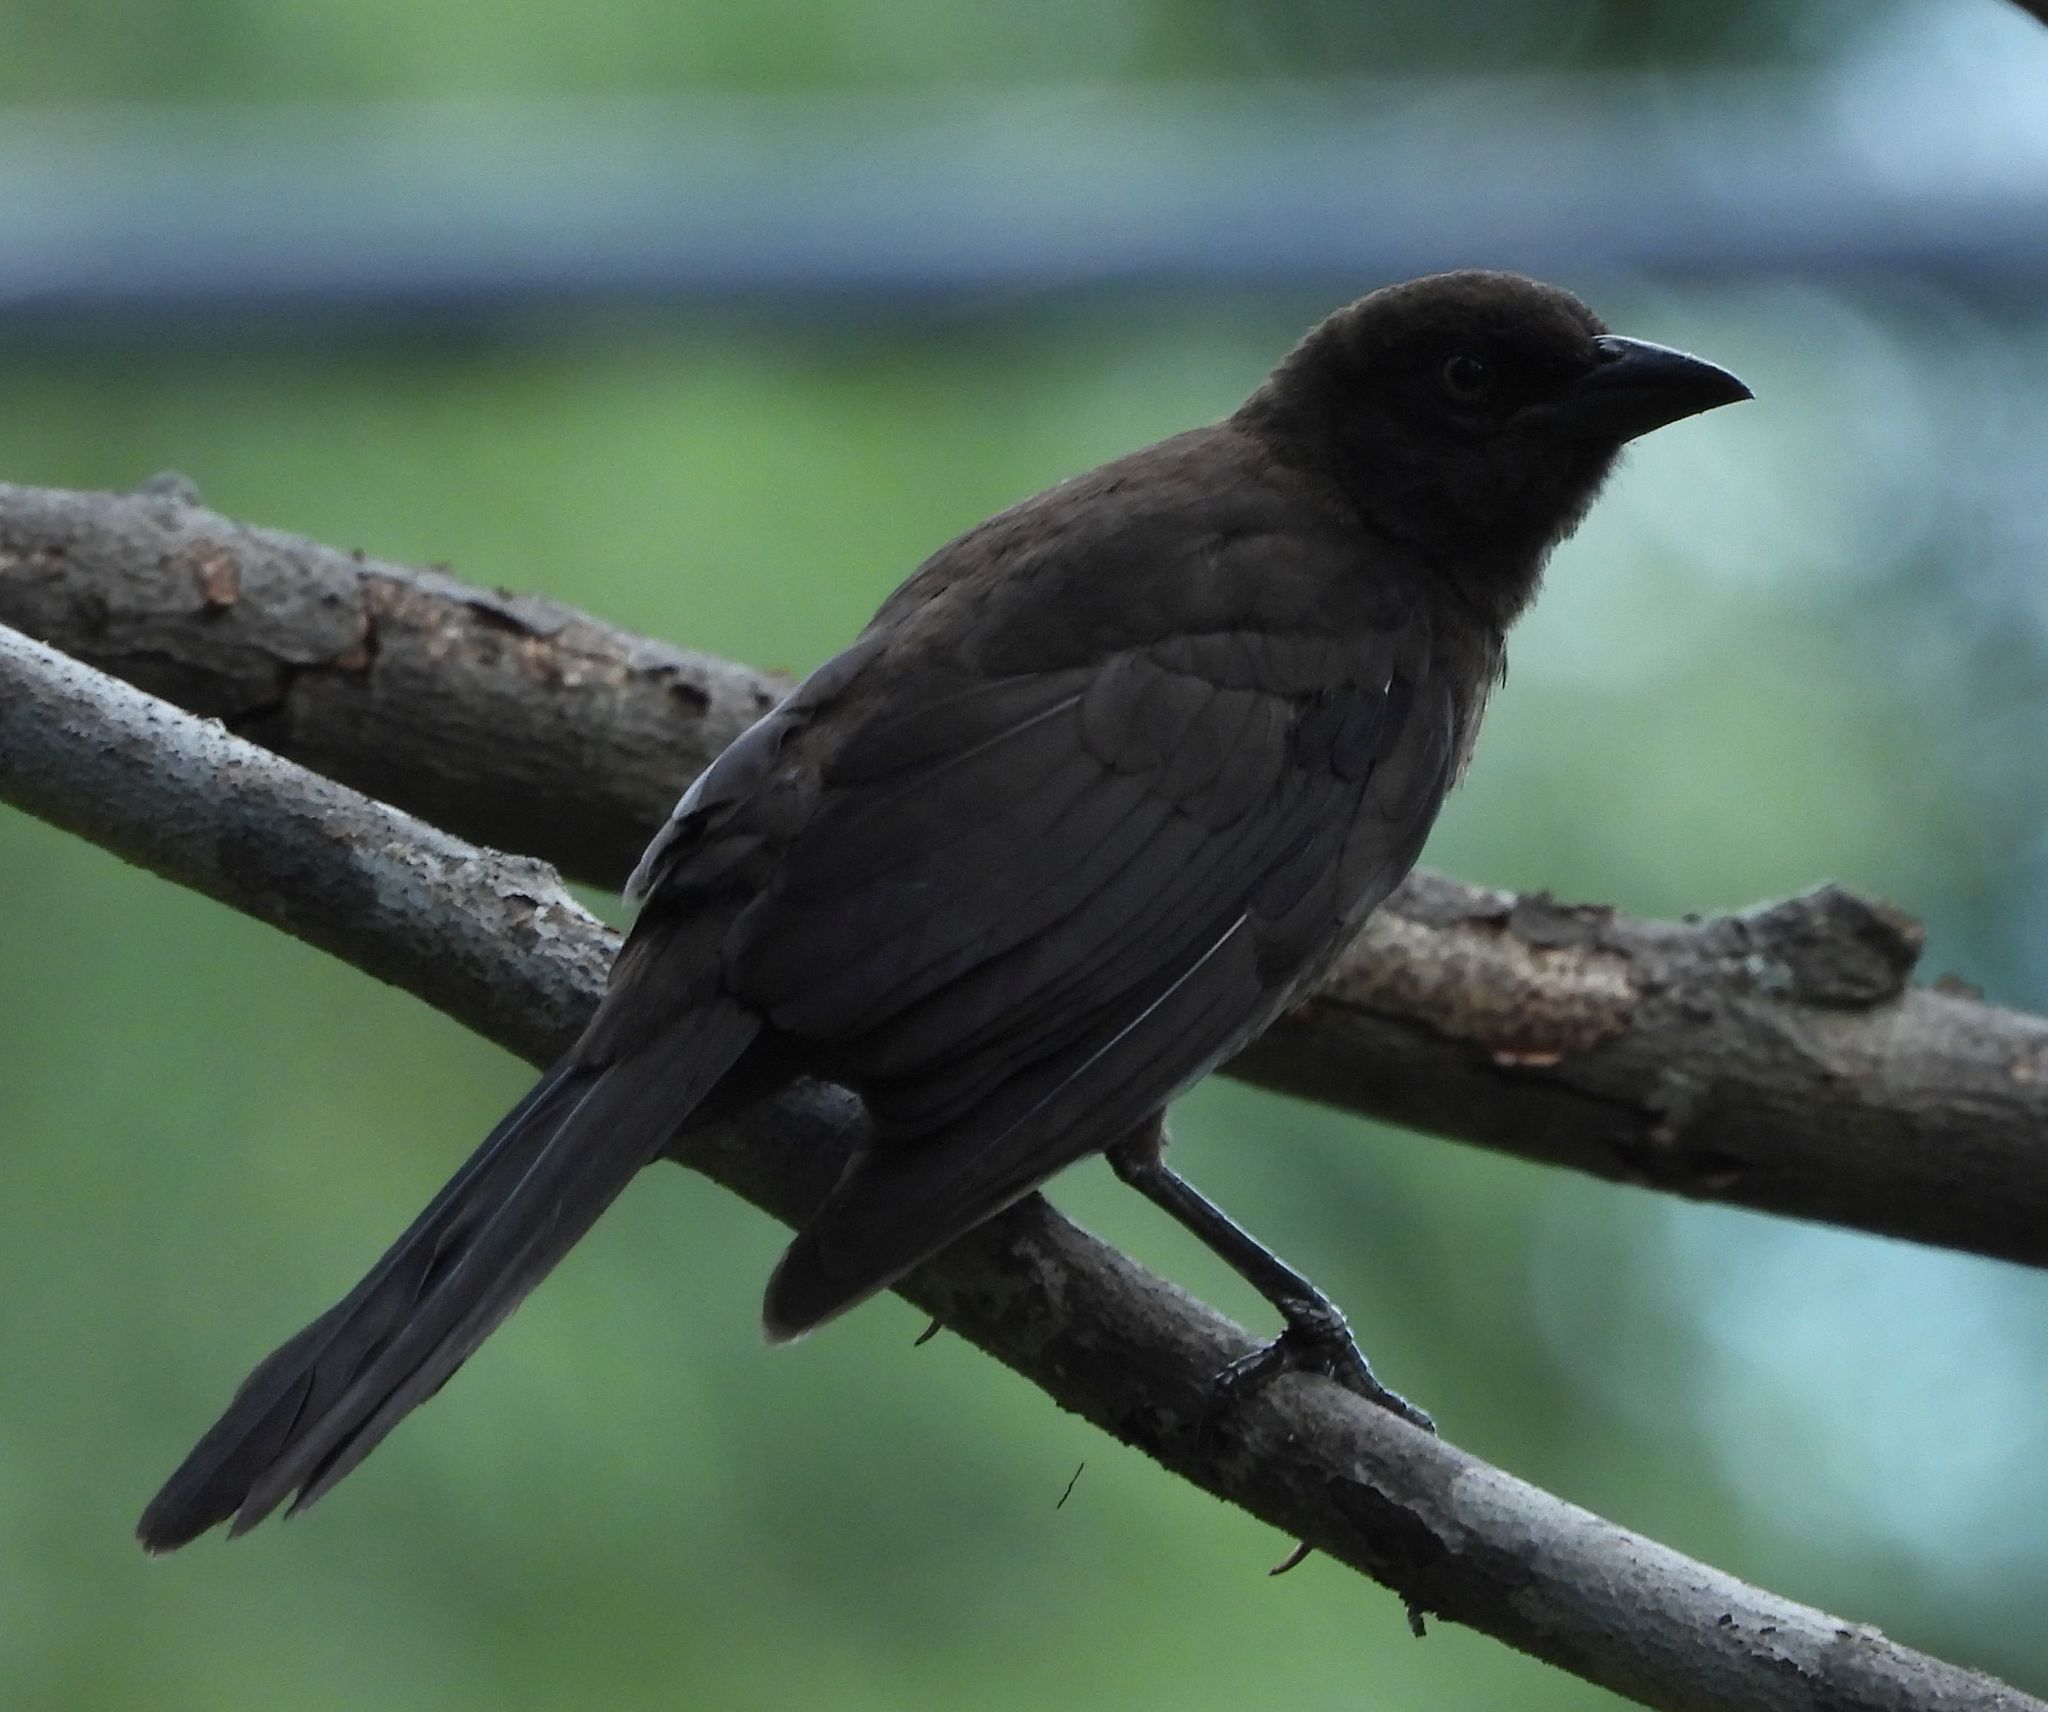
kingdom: Animalia
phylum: Chordata
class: Aves
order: Passeriformes
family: Icteridae
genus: Quiscalus
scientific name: Quiscalus quiscula
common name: Common grackle
